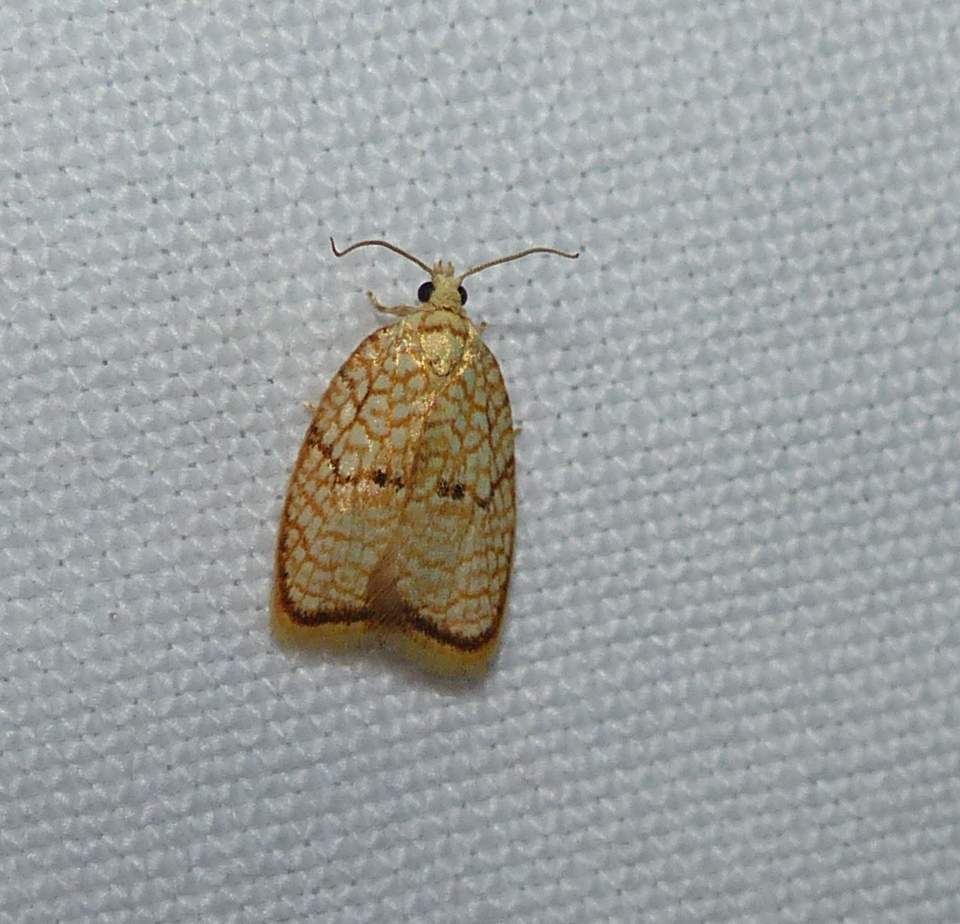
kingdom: Animalia
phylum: Arthropoda
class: Insecta
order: Lepidoptera
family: Tortricidae
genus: Acleris
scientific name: Acleris forsskaleana
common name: Maple button
